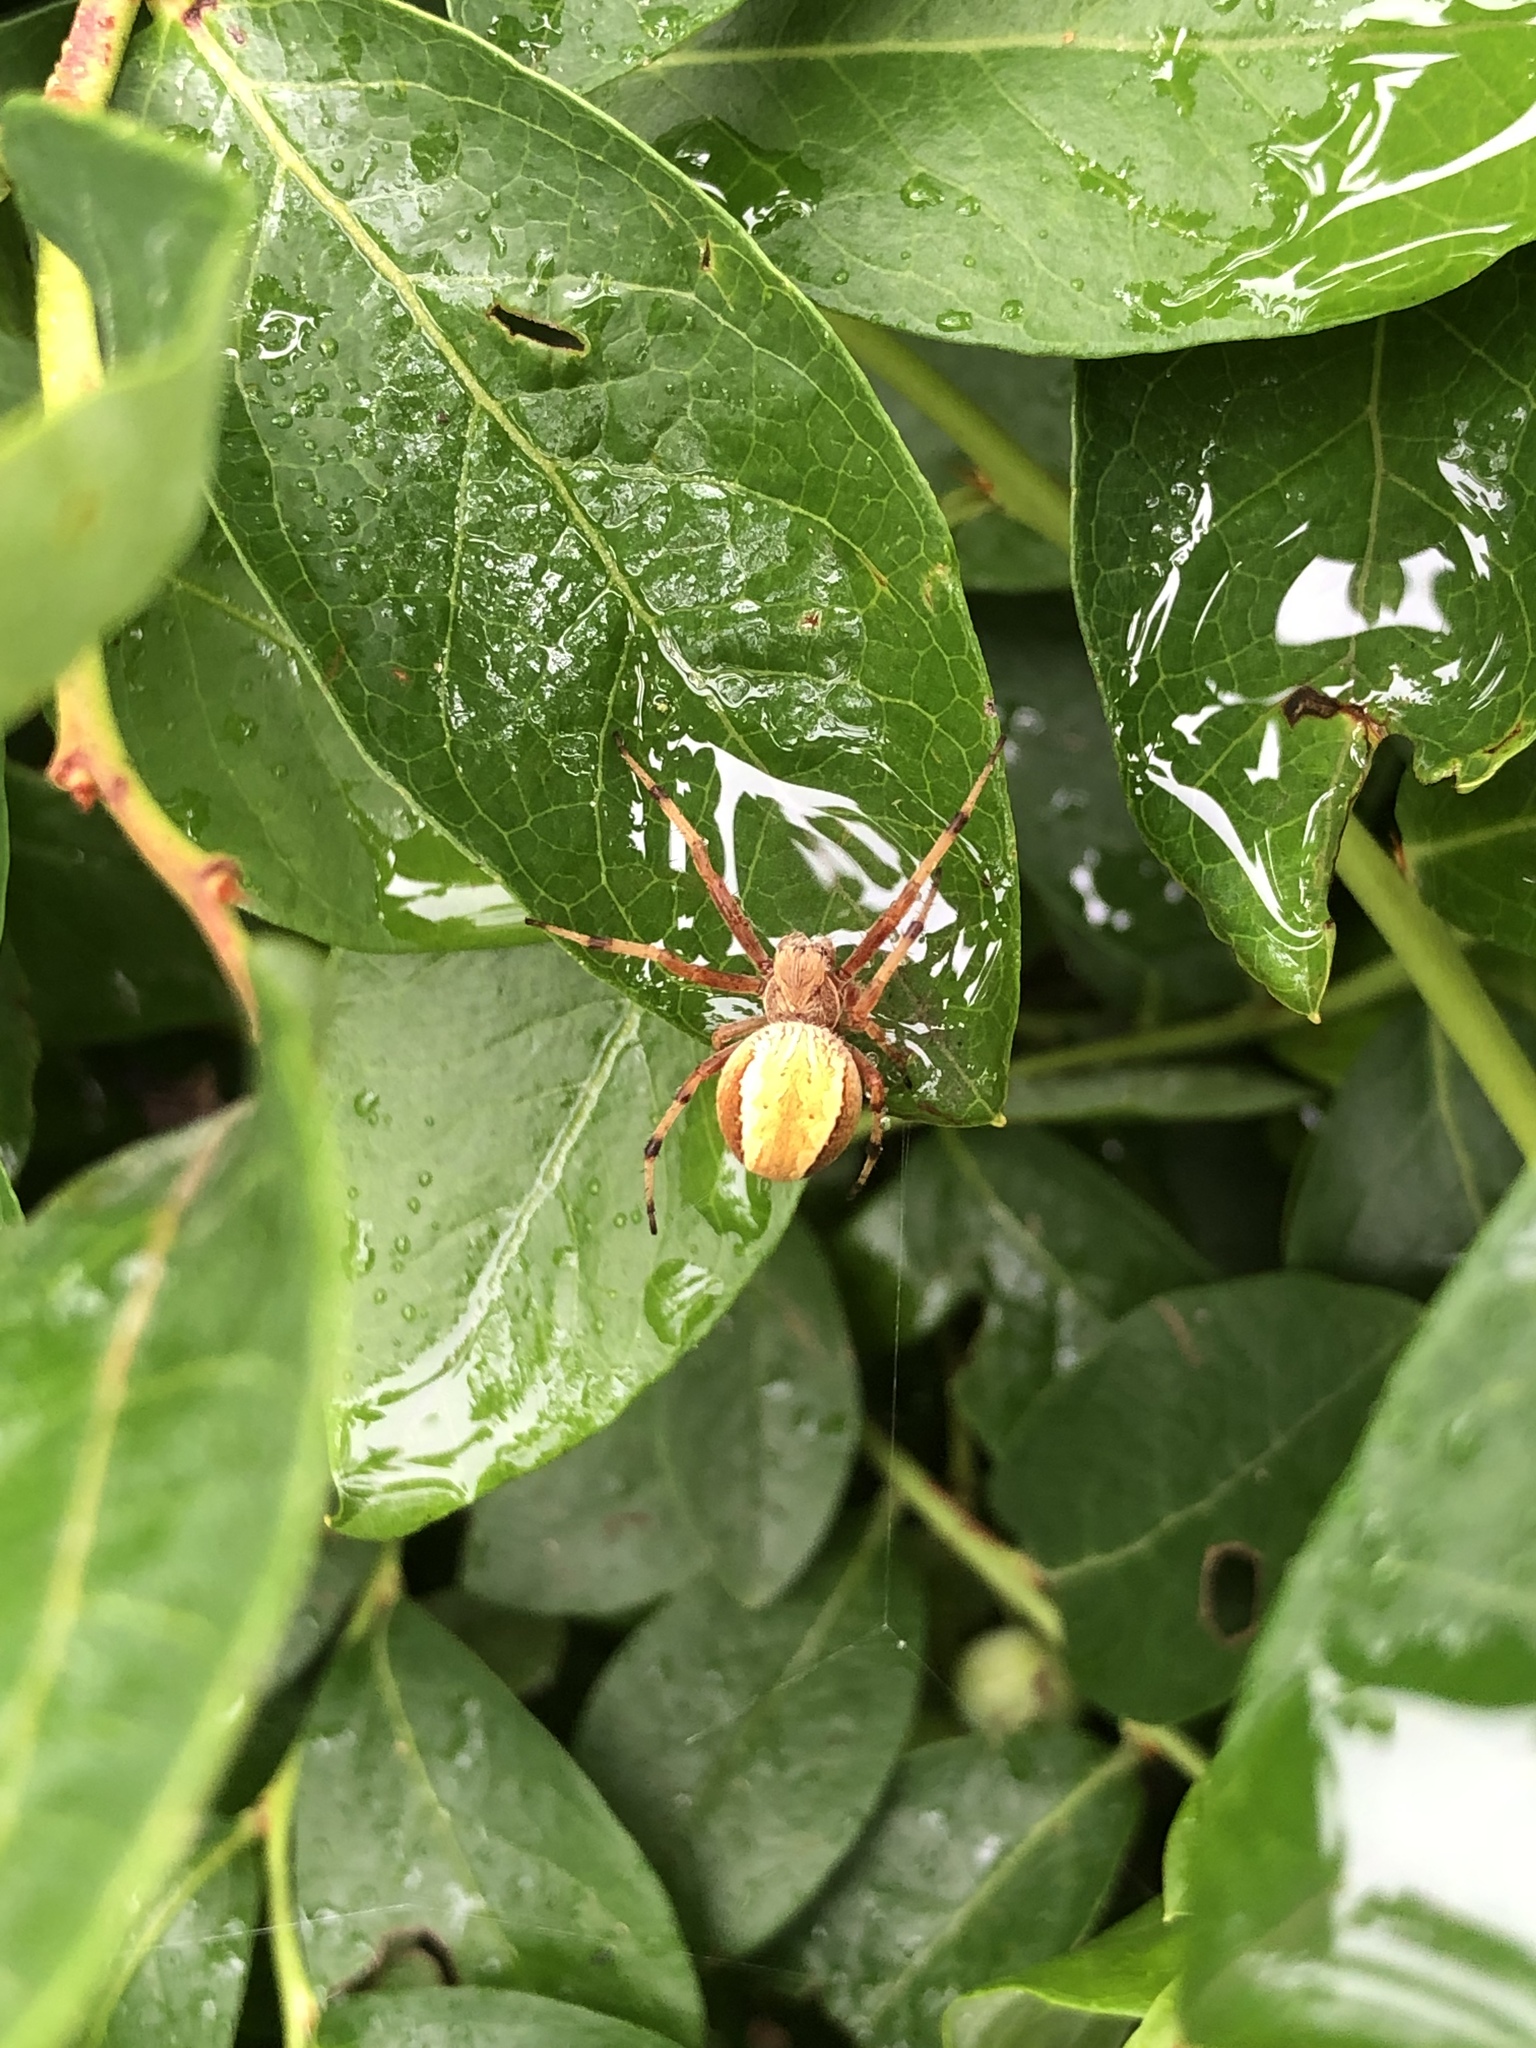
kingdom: Animalia
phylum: Arthropoda
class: Arachnida
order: Araneae
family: Araneidae
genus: Salsa
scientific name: Salsa fuliginata
